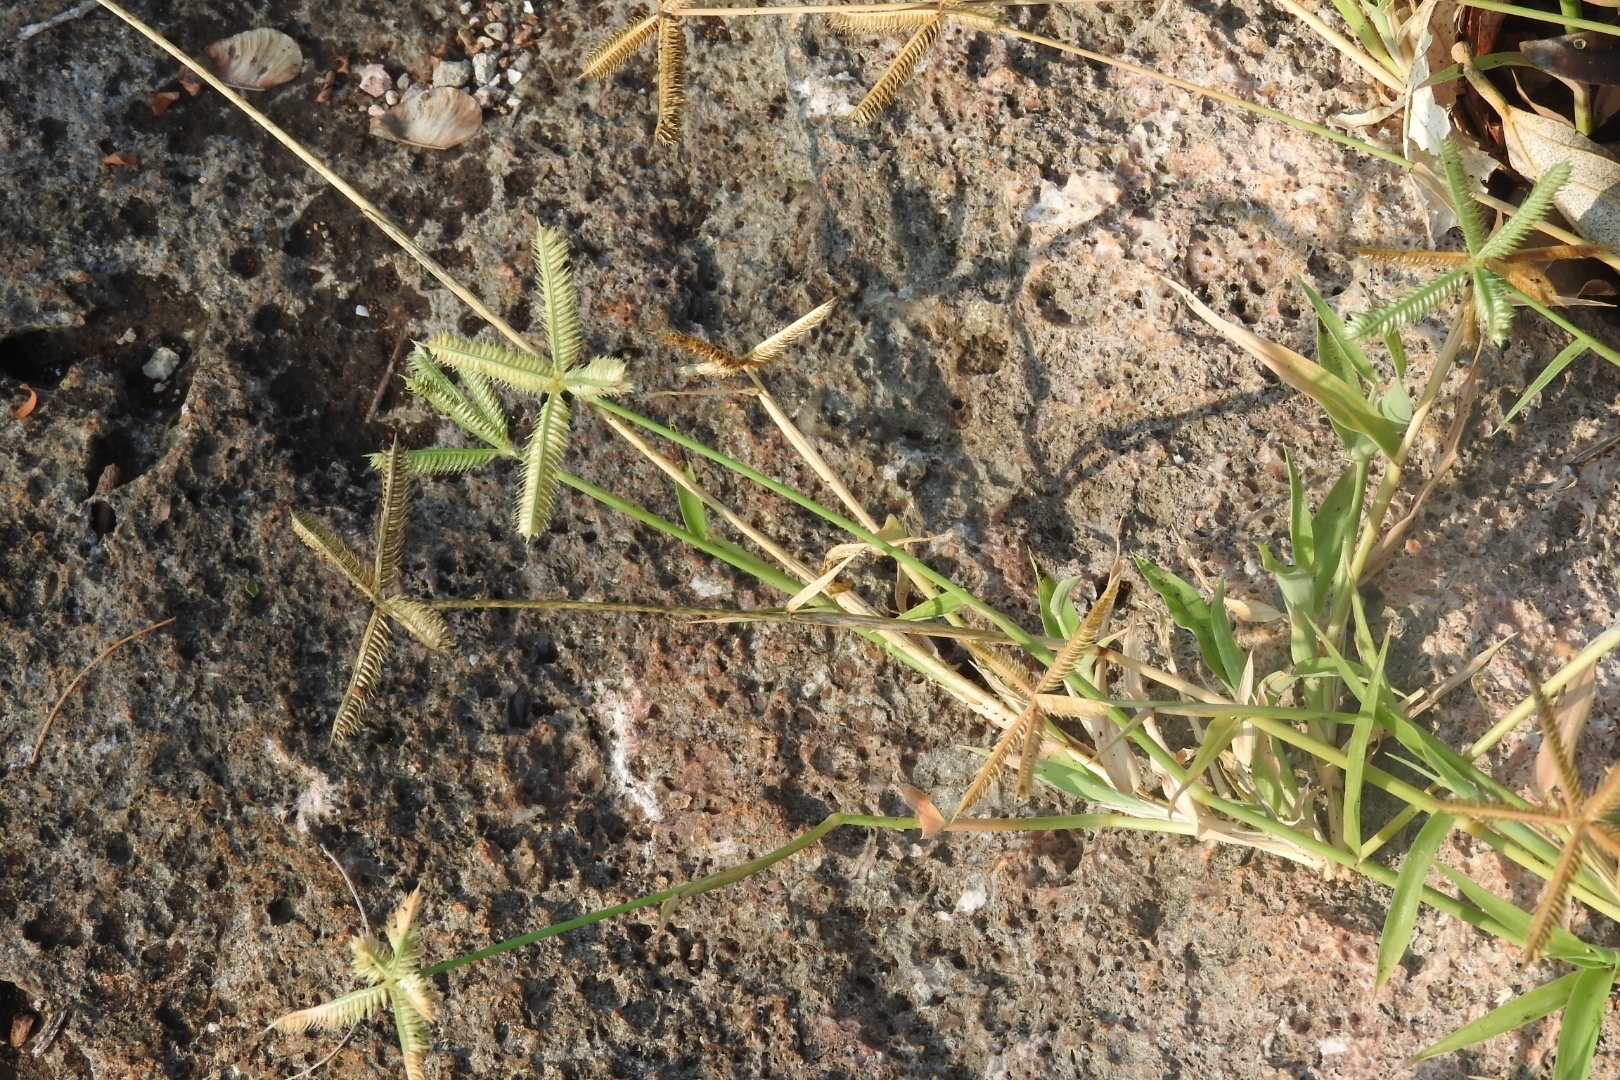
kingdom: Plantae
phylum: Tracheophyta
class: Liliopsida
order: Poales
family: Poaceae
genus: Dactyloctenium
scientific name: Dactyloctenium aegyptium
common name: Egyptian grass
